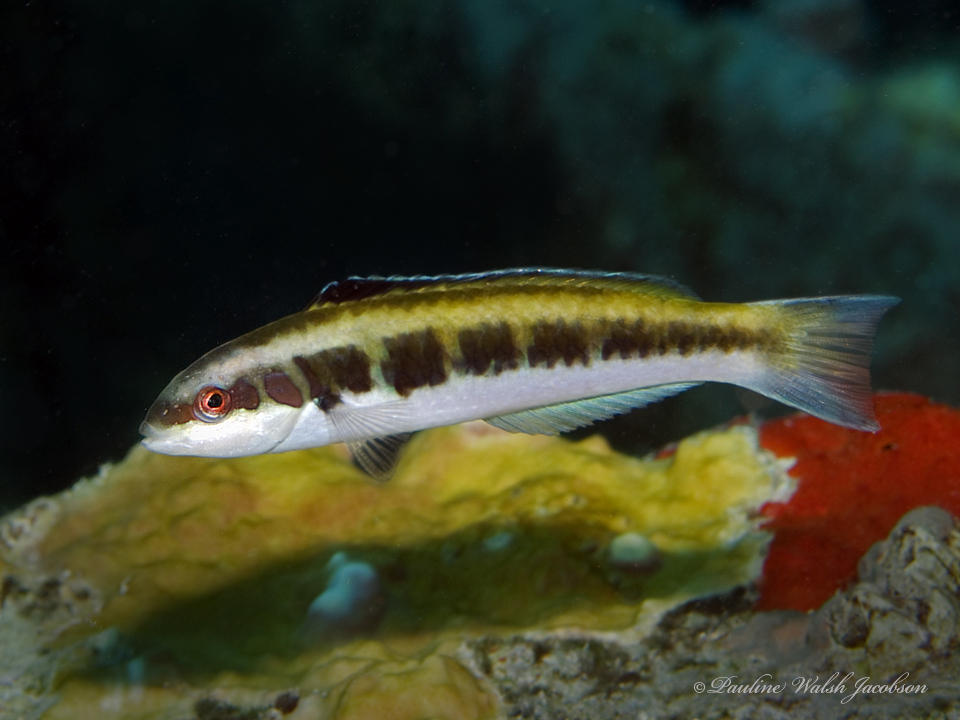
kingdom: Animalia
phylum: Chordata
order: Perciformes
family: Labridae
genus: Thalassoma
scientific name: Thalassoma bifasciatum
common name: Bluehead wrasse
